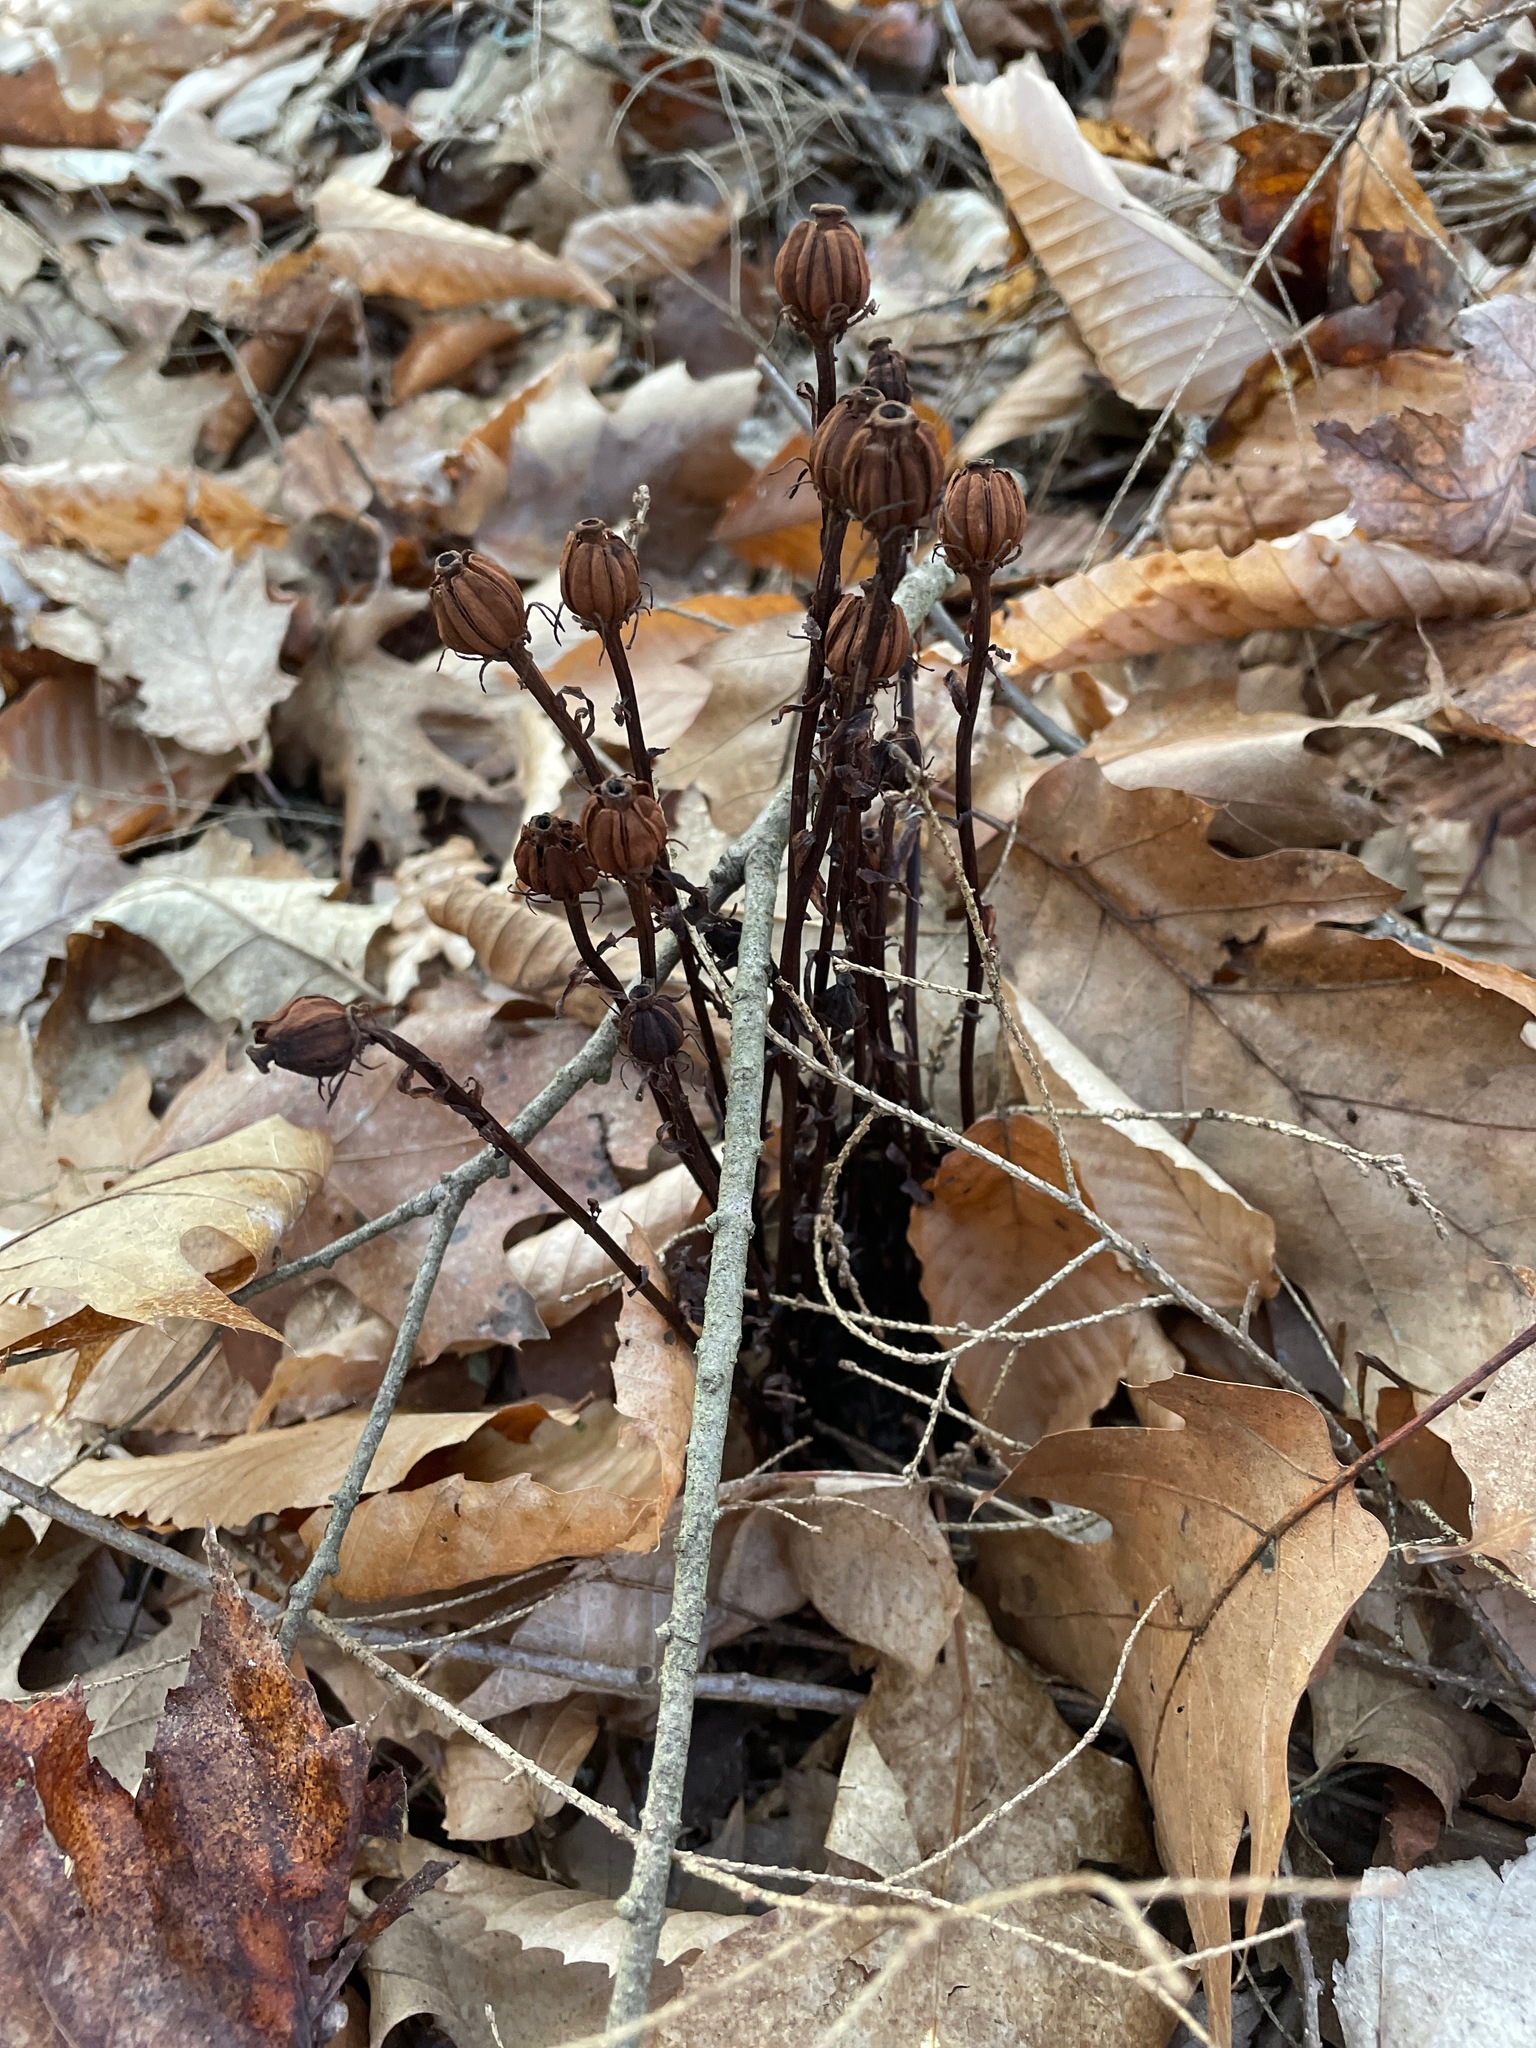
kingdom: Plantae
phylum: Tracheophyta
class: Magnoliopsida
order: Ericales
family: Ericaceae
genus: Monotropa
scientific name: Monotropa uniflora
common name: Convulsion root
